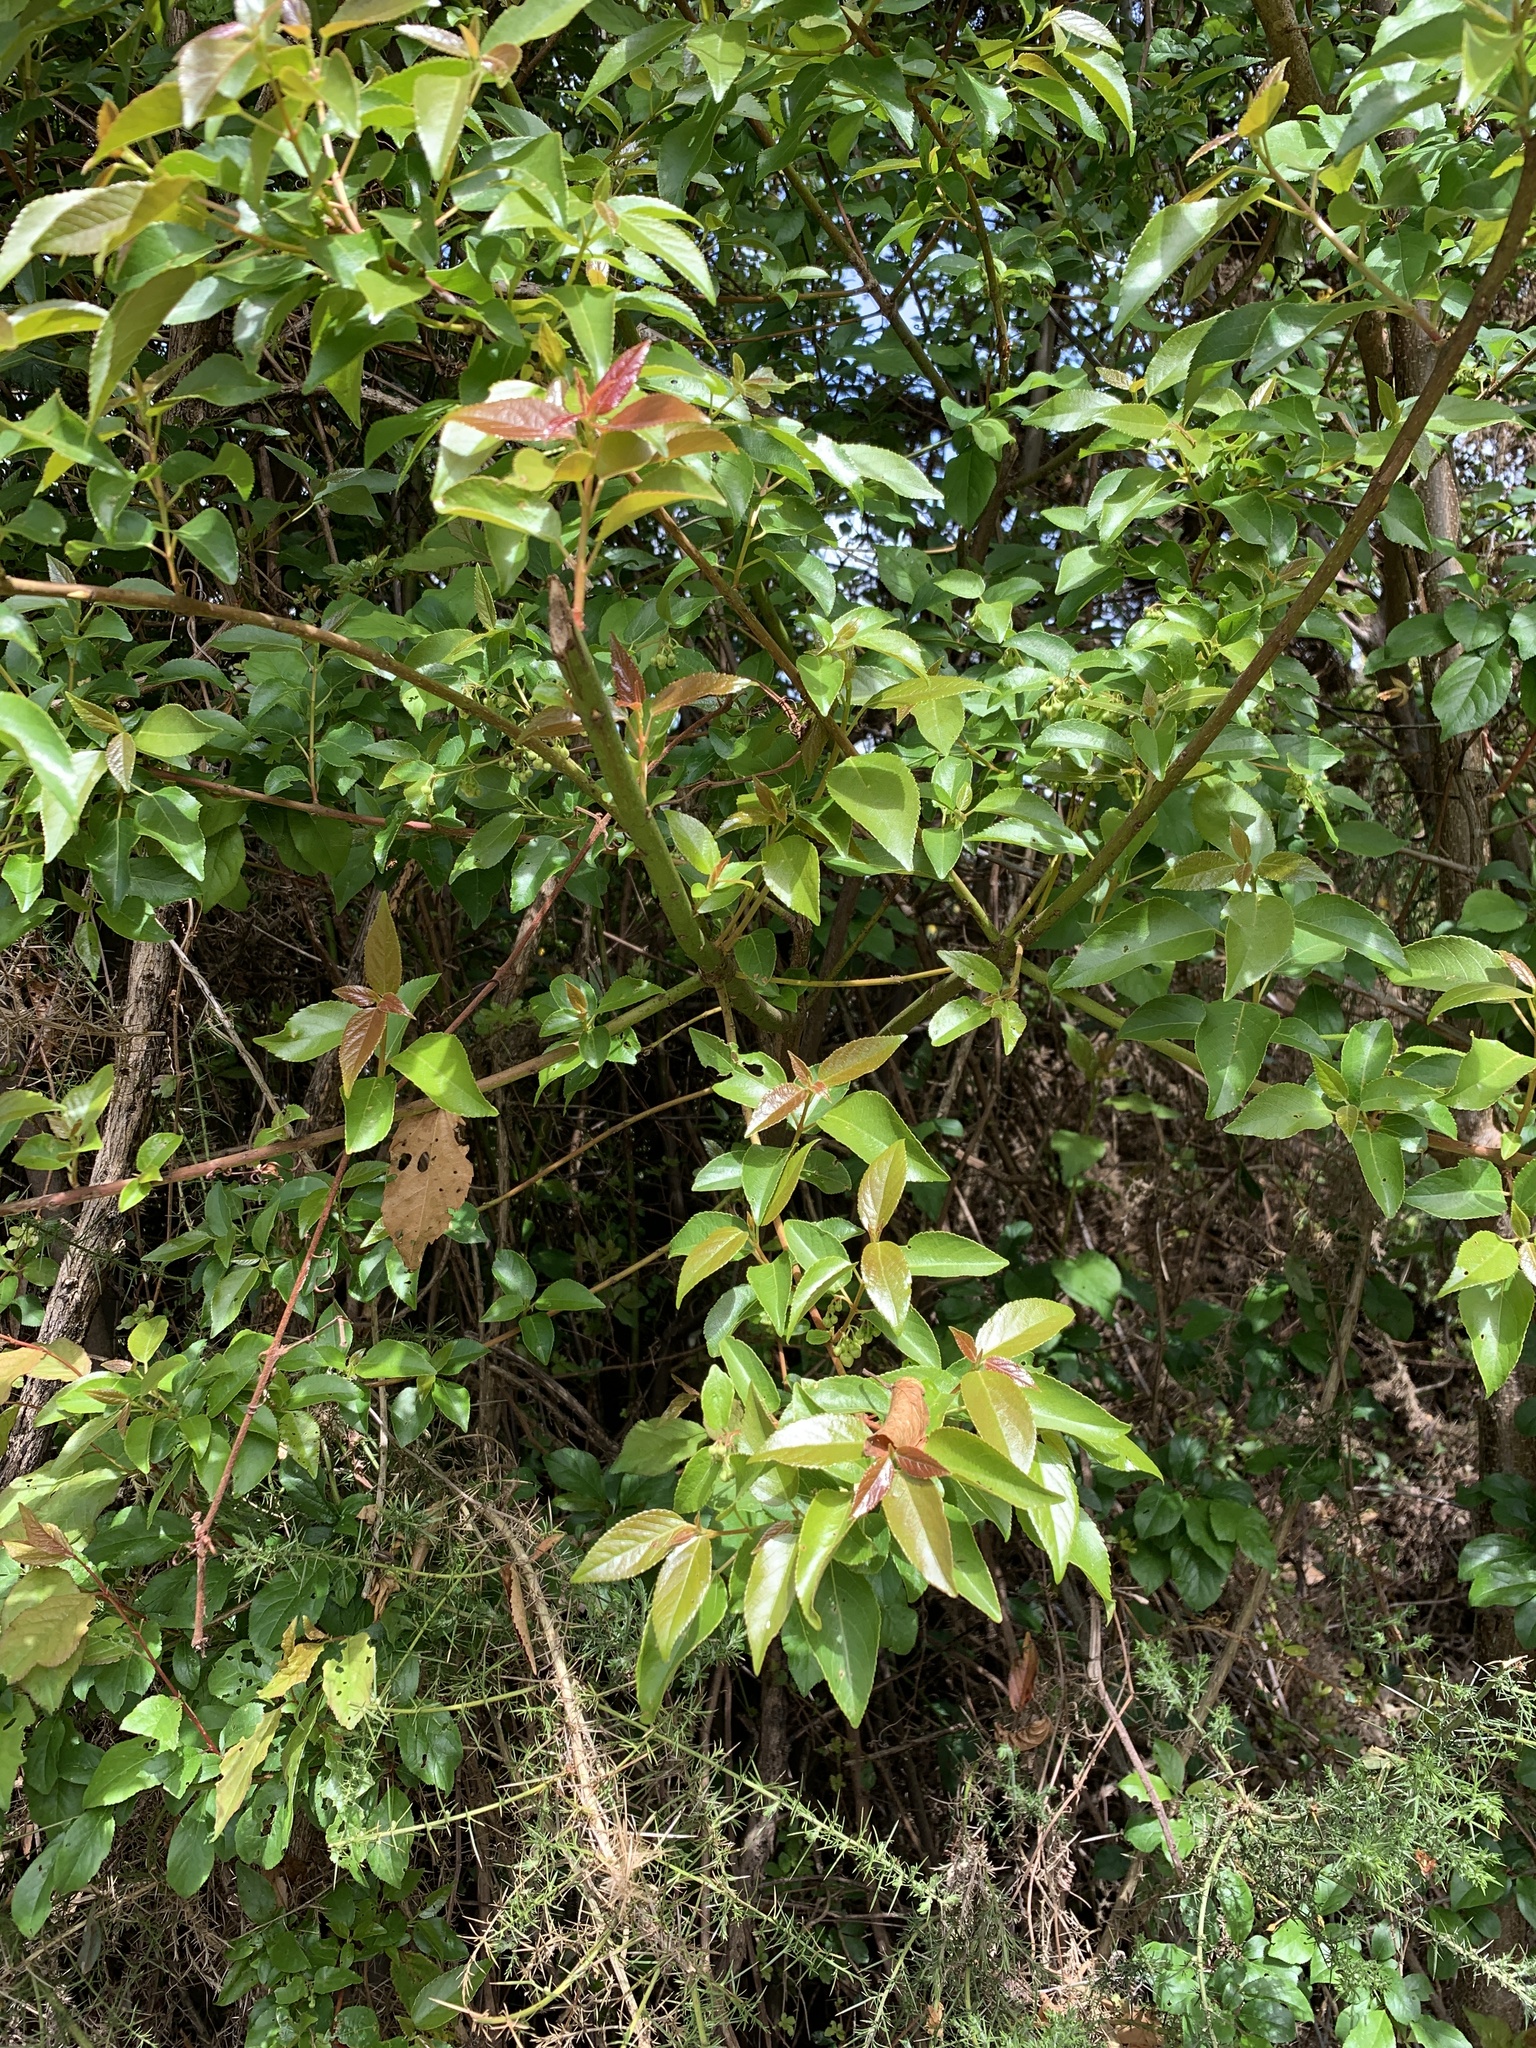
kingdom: Plantae
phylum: Tracheophyta
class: Magnoliopsida
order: Oxalidales
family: Elaeocarpaceae
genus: Aristotelia
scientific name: Aristotelia chilensis
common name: Maquei
